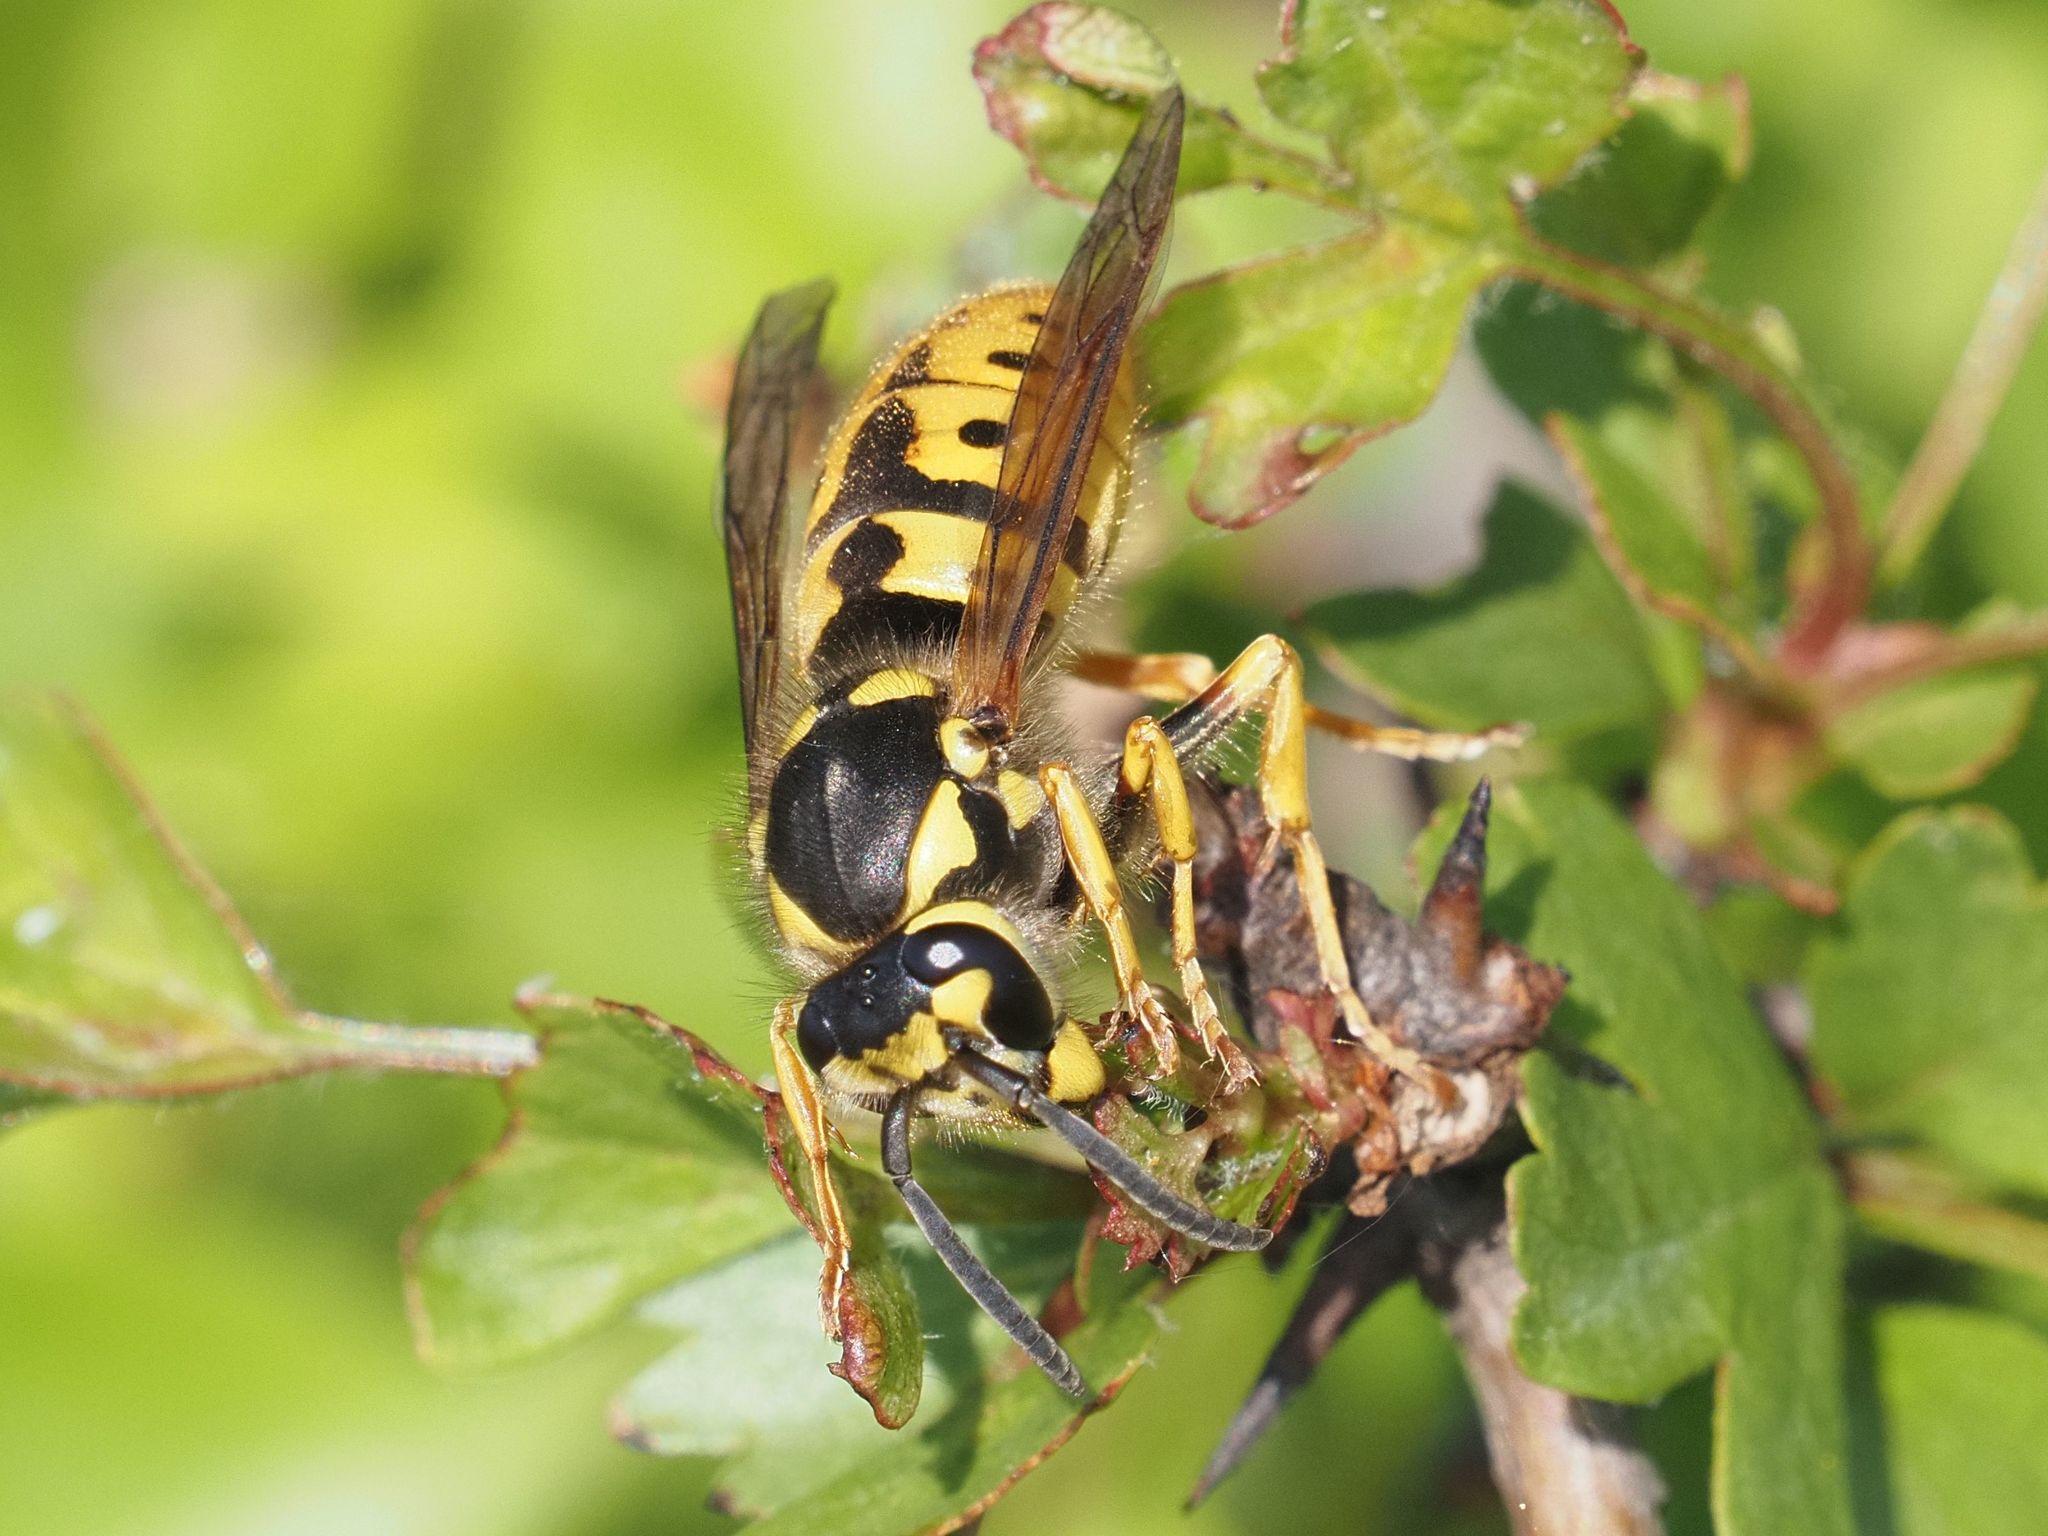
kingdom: Animalia
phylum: Arthropoda
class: Insecta
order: Hymenoptera
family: Vespidae
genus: Vespula
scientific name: Vespula germanica
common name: German wasp
